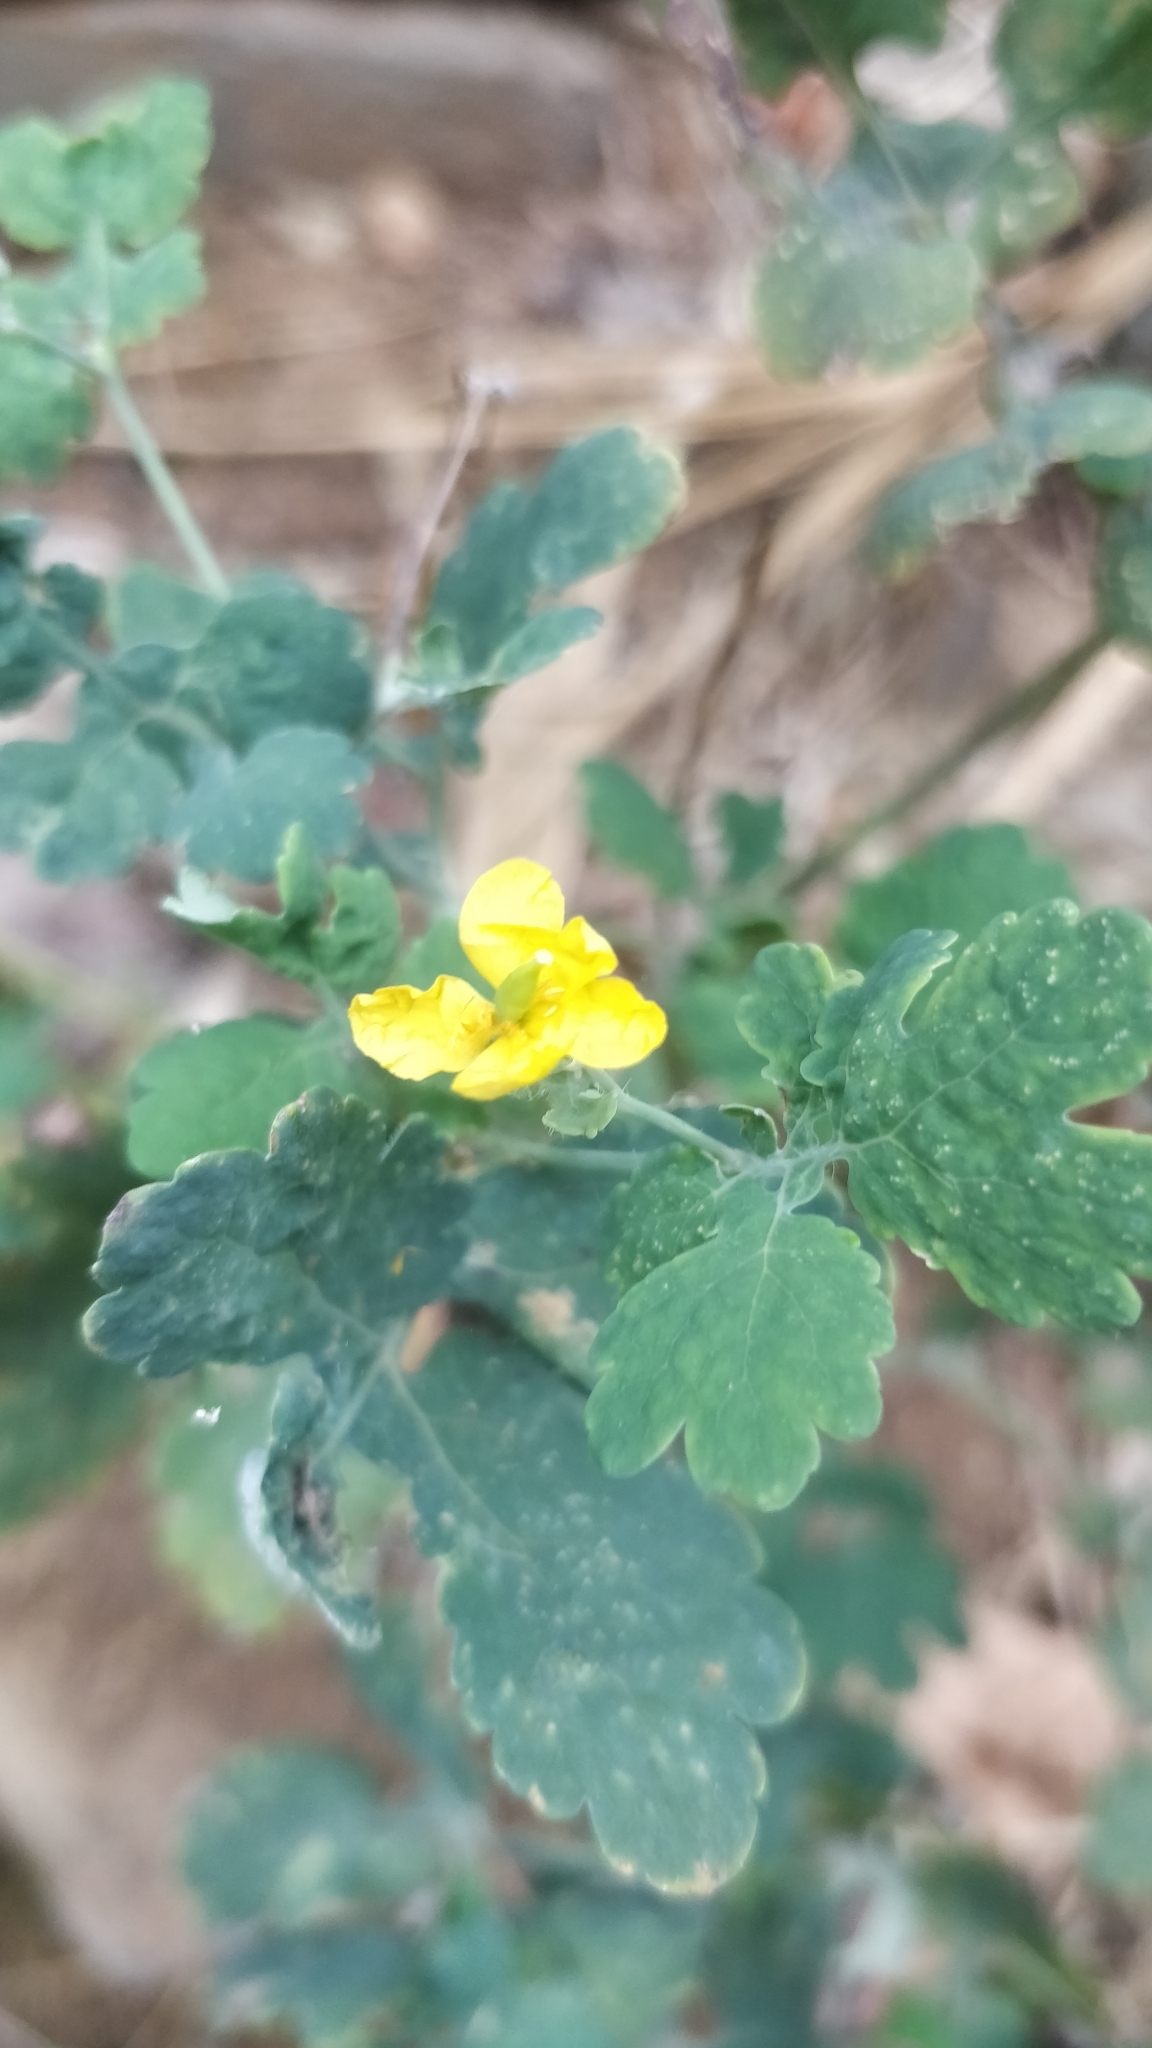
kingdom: Plantae
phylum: Tracheophyta
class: Magnoliopsida
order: Ranunculales
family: Papaveraceae
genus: Chelidonium
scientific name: Chelidonium majus
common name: Greater celandine
